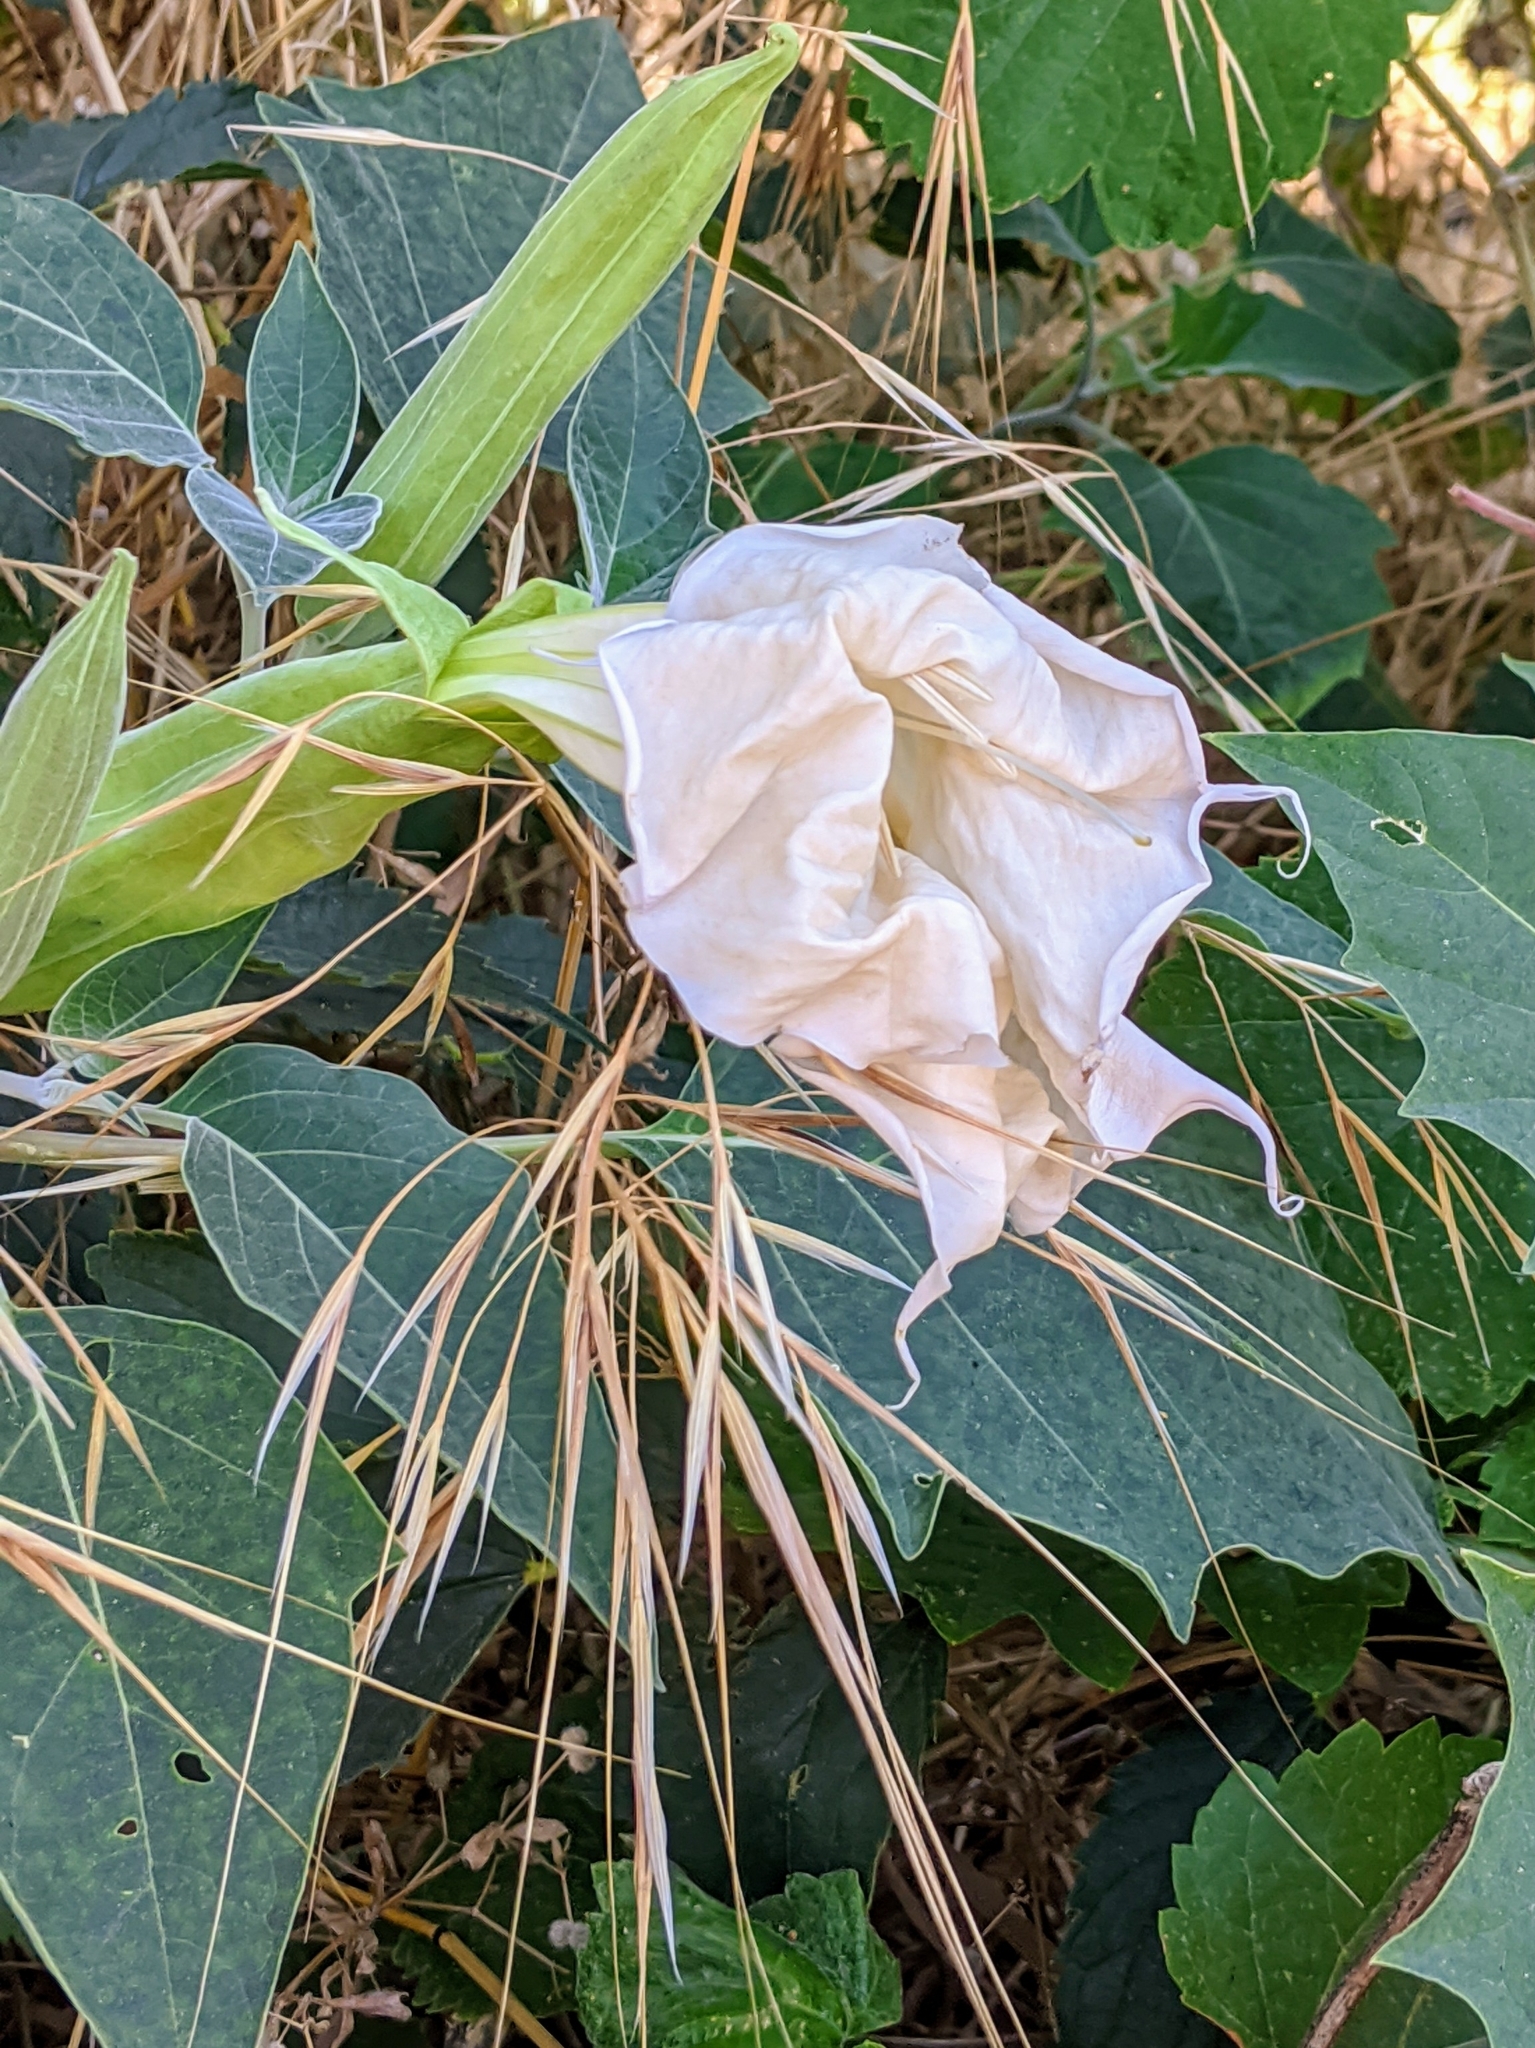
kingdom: Plantae
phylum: Tracheophyta
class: Magnoliopsida
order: Solanales
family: Solanaceae
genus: Datura
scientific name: Datura wrightii
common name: Sacred thorn-apple
